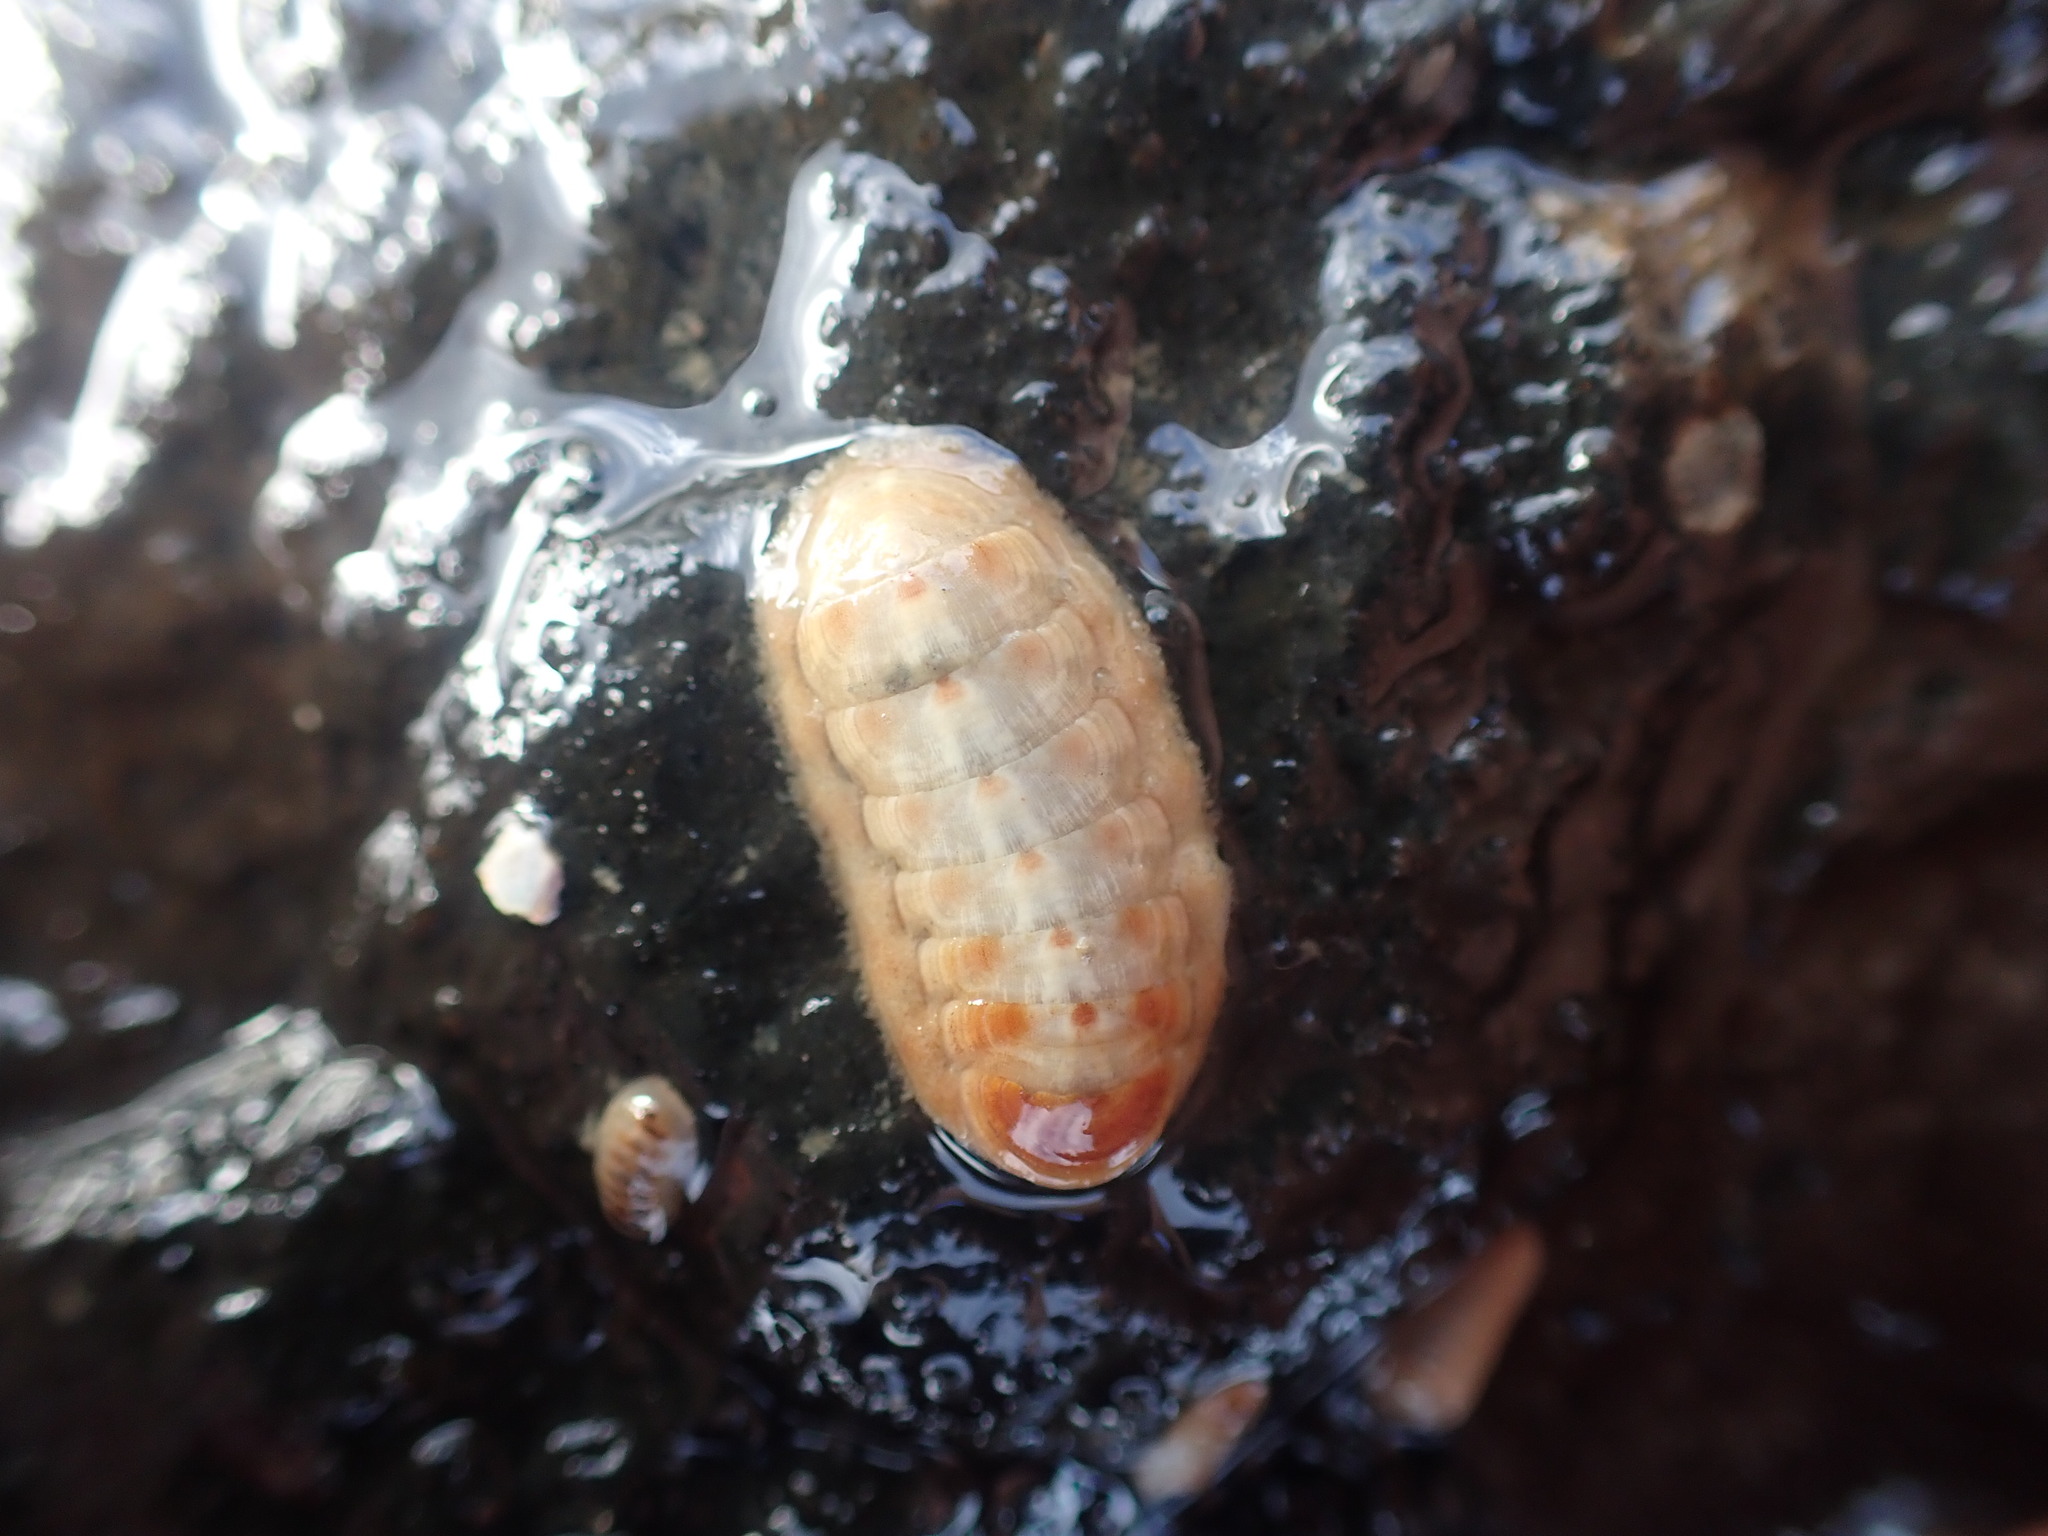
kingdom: Animalia
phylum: Mollusca
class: Polyplacophora
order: Lepidopleurida
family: Leptochitonidae
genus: Leptochiton
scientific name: Leptochiton inquinatus
